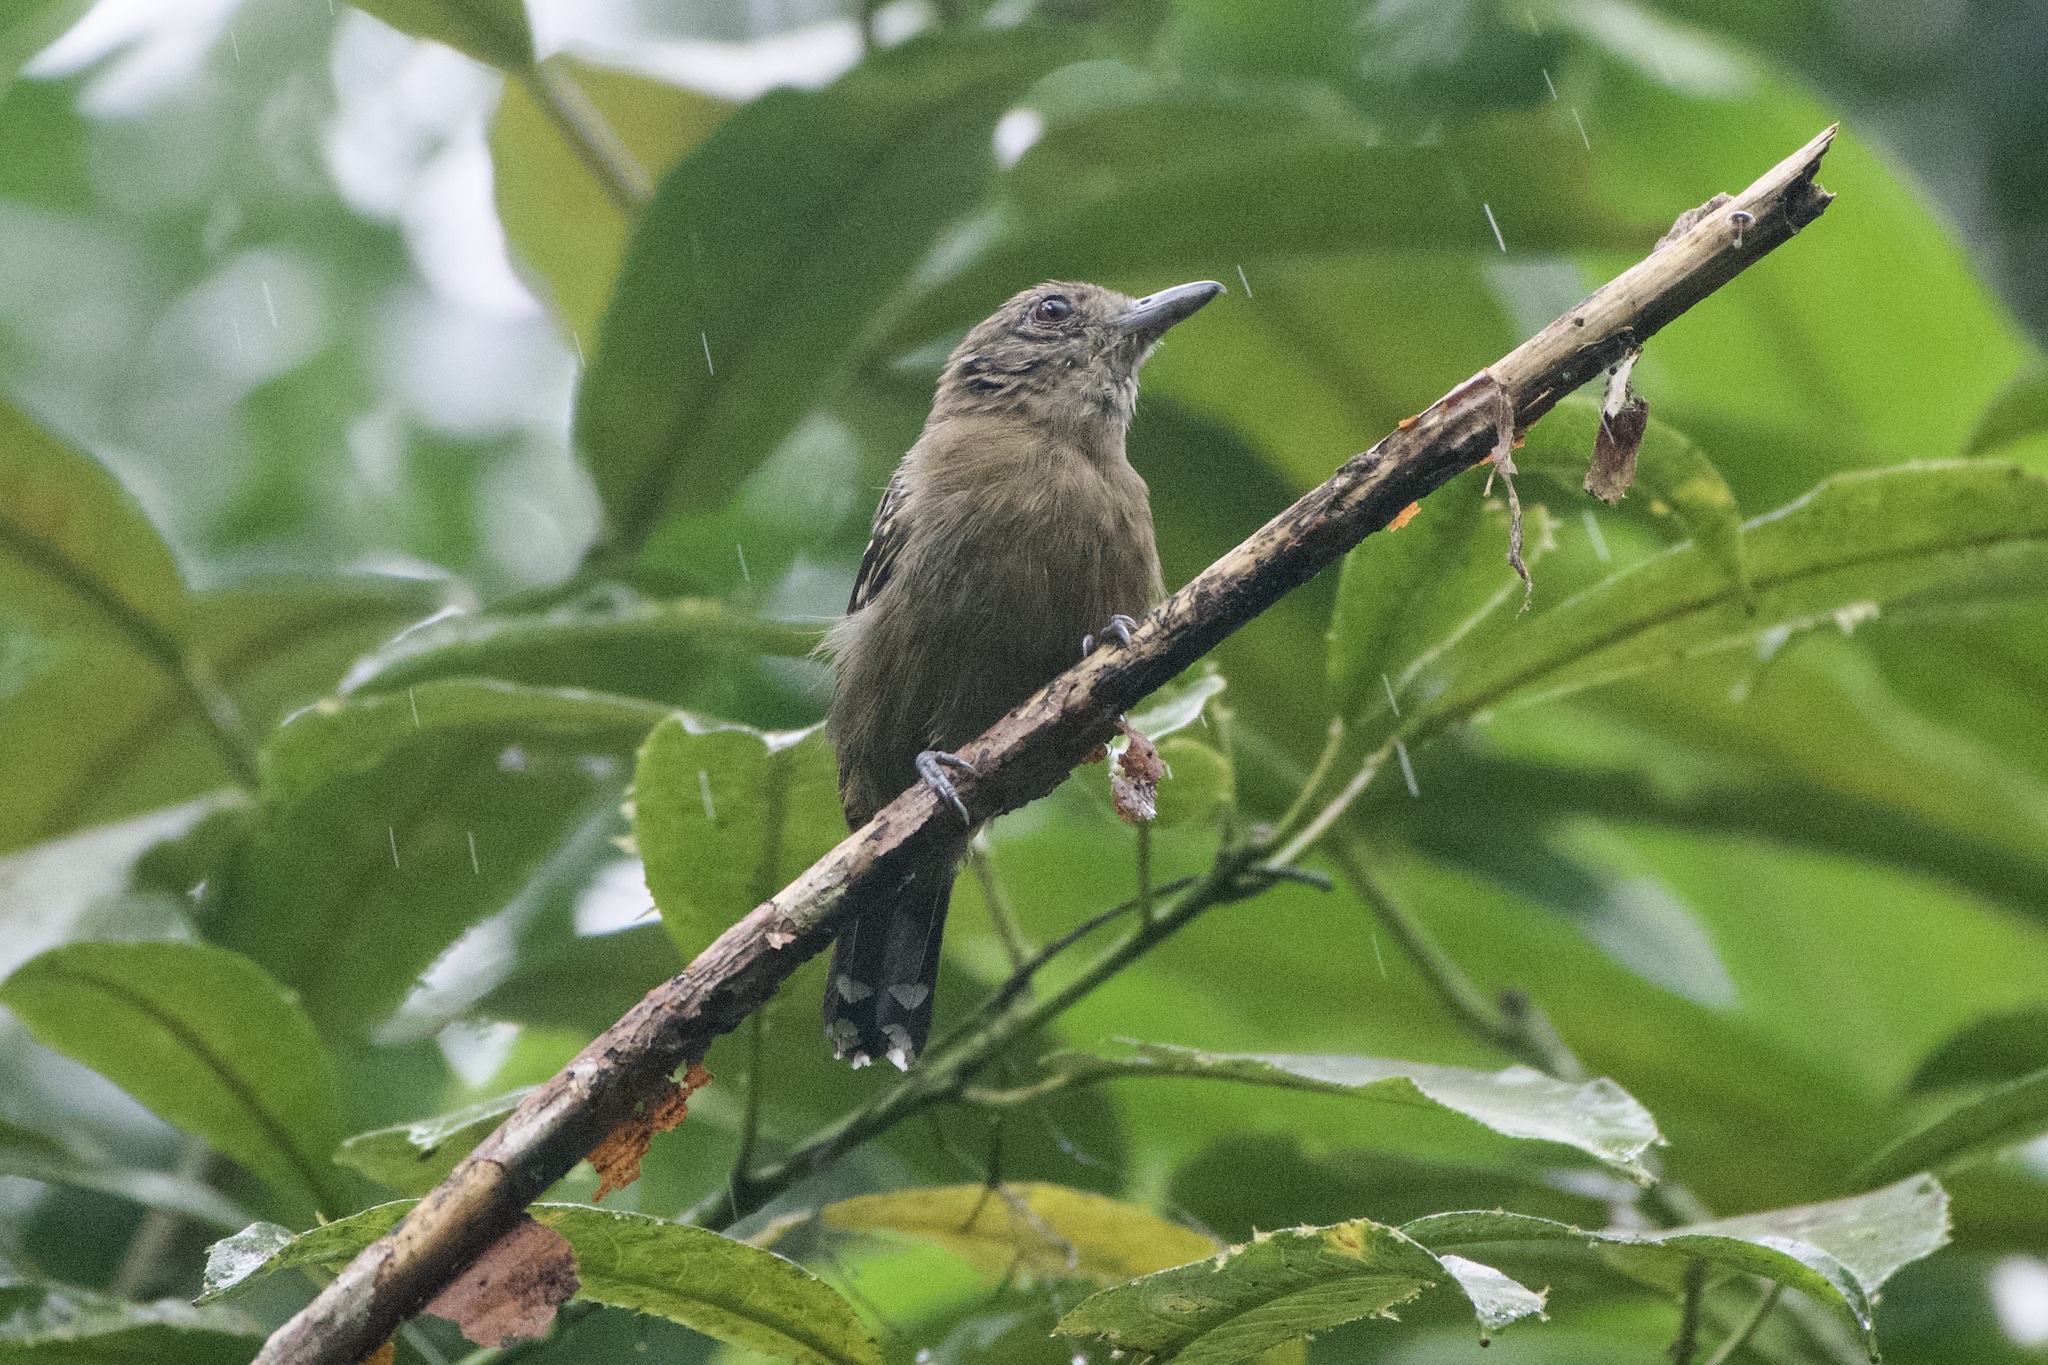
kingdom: Animalia
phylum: Chordata
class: Aves
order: Passeriformes
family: Thamnophilidae
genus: Thamnophilus
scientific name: Thamnophilus atrinucha
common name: Black-crowned antshrike
